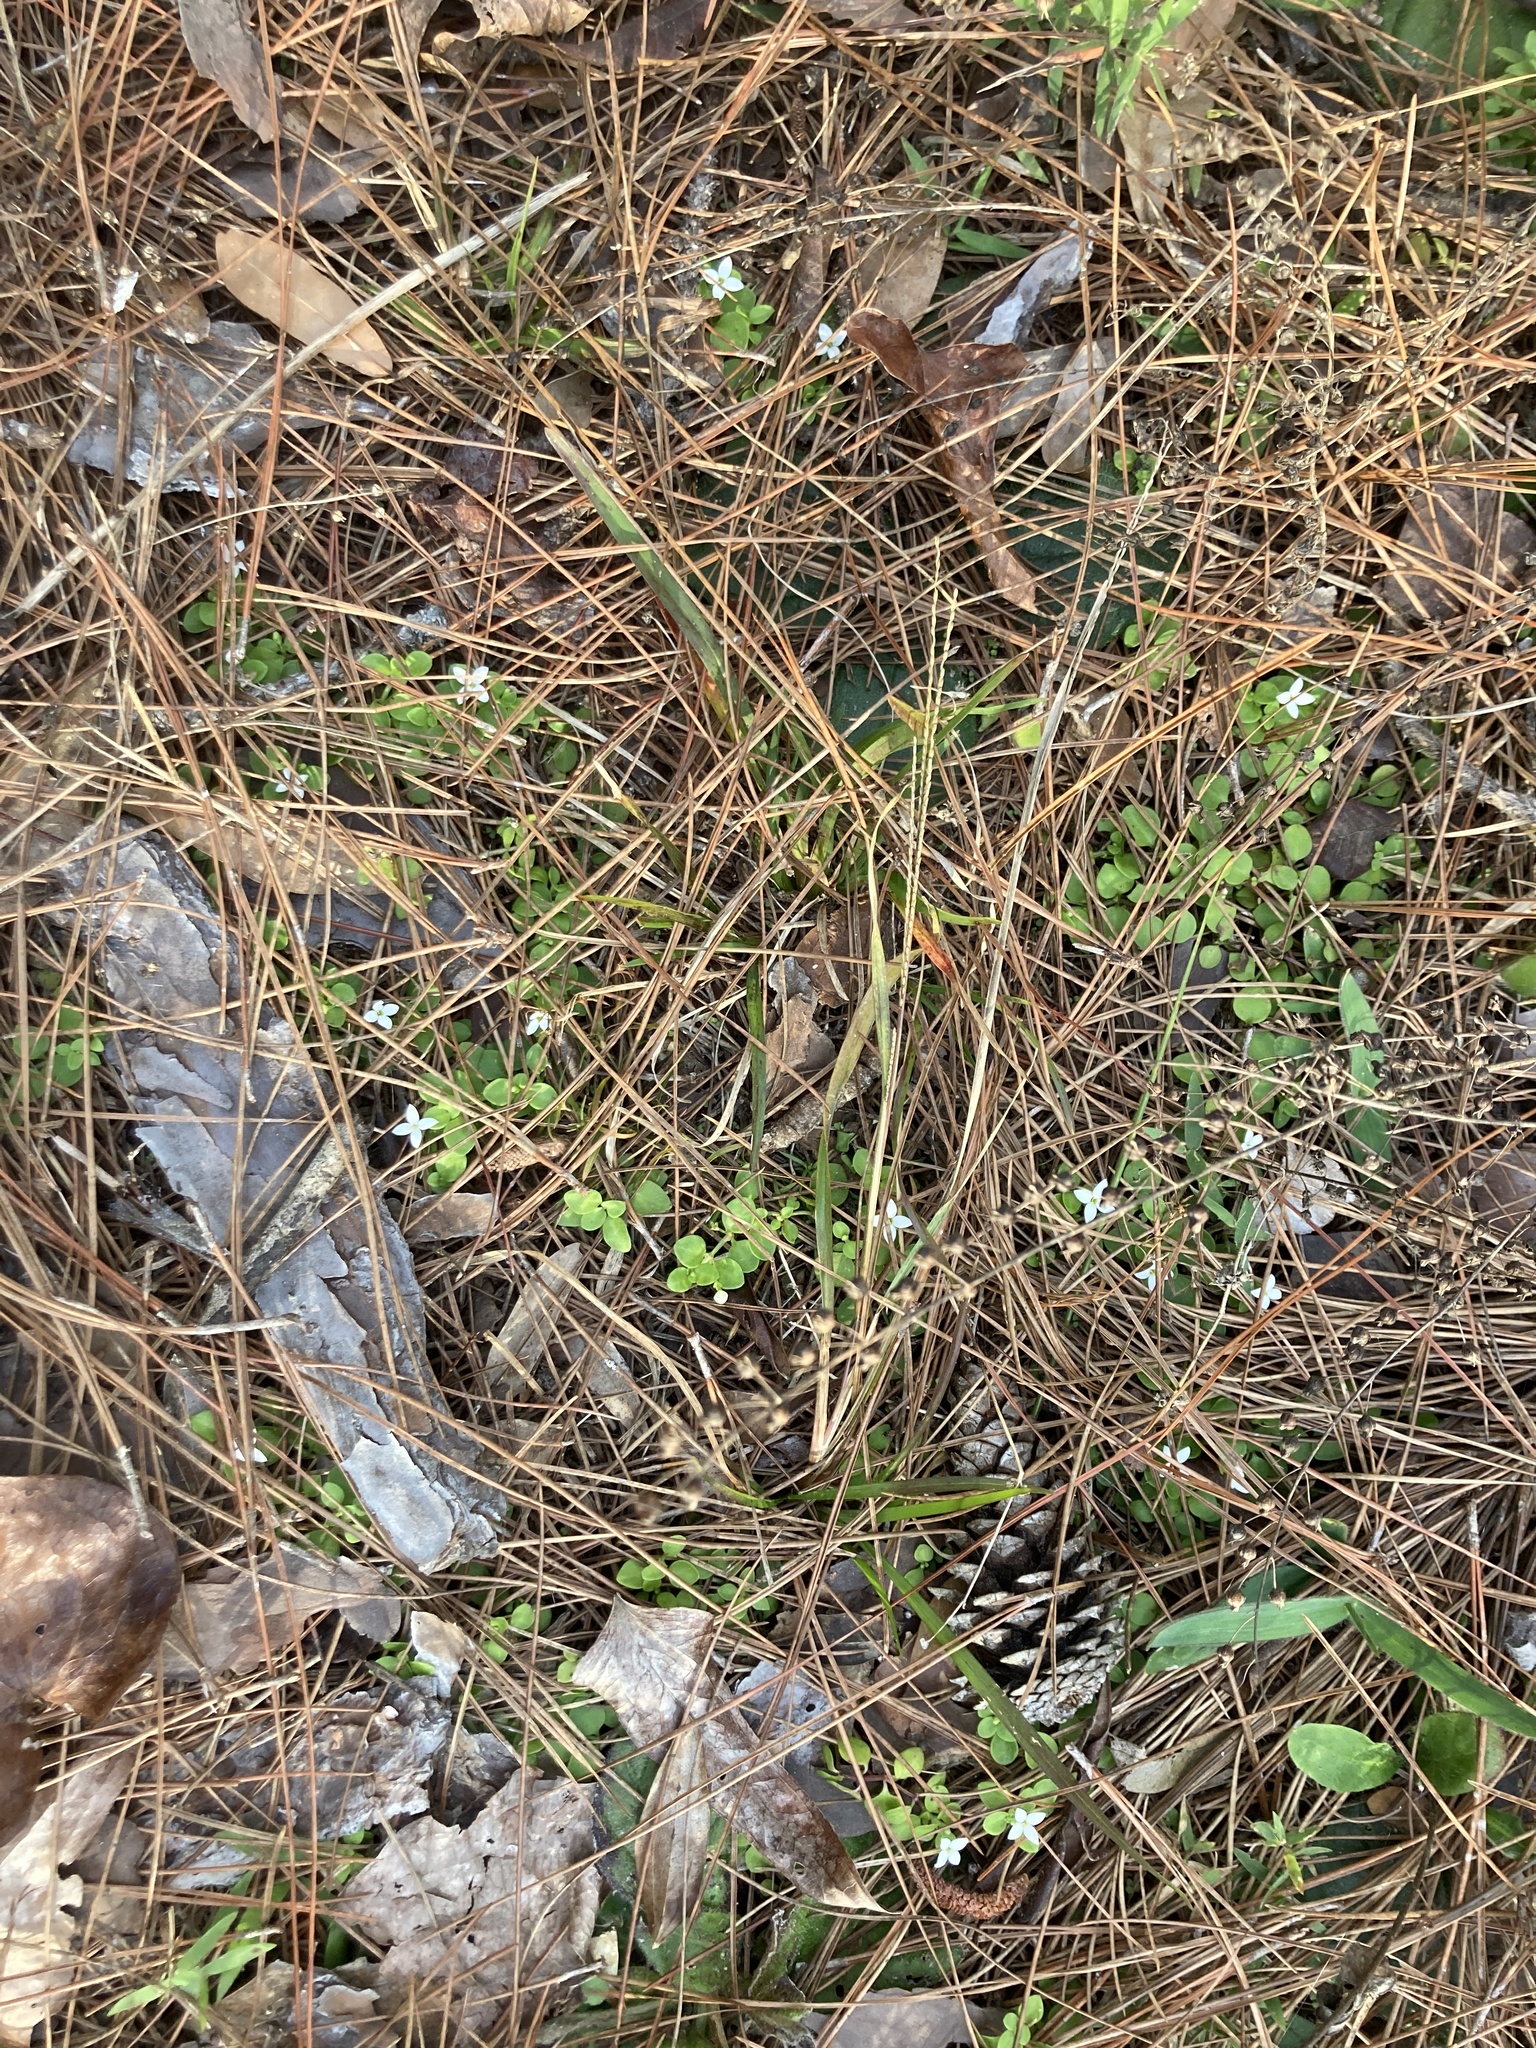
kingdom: Plantae
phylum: Tracheophyta
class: Magnoliopsida
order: Gentianales
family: Rubiaceae
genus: Houstonia
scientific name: Houstonia procumbens
